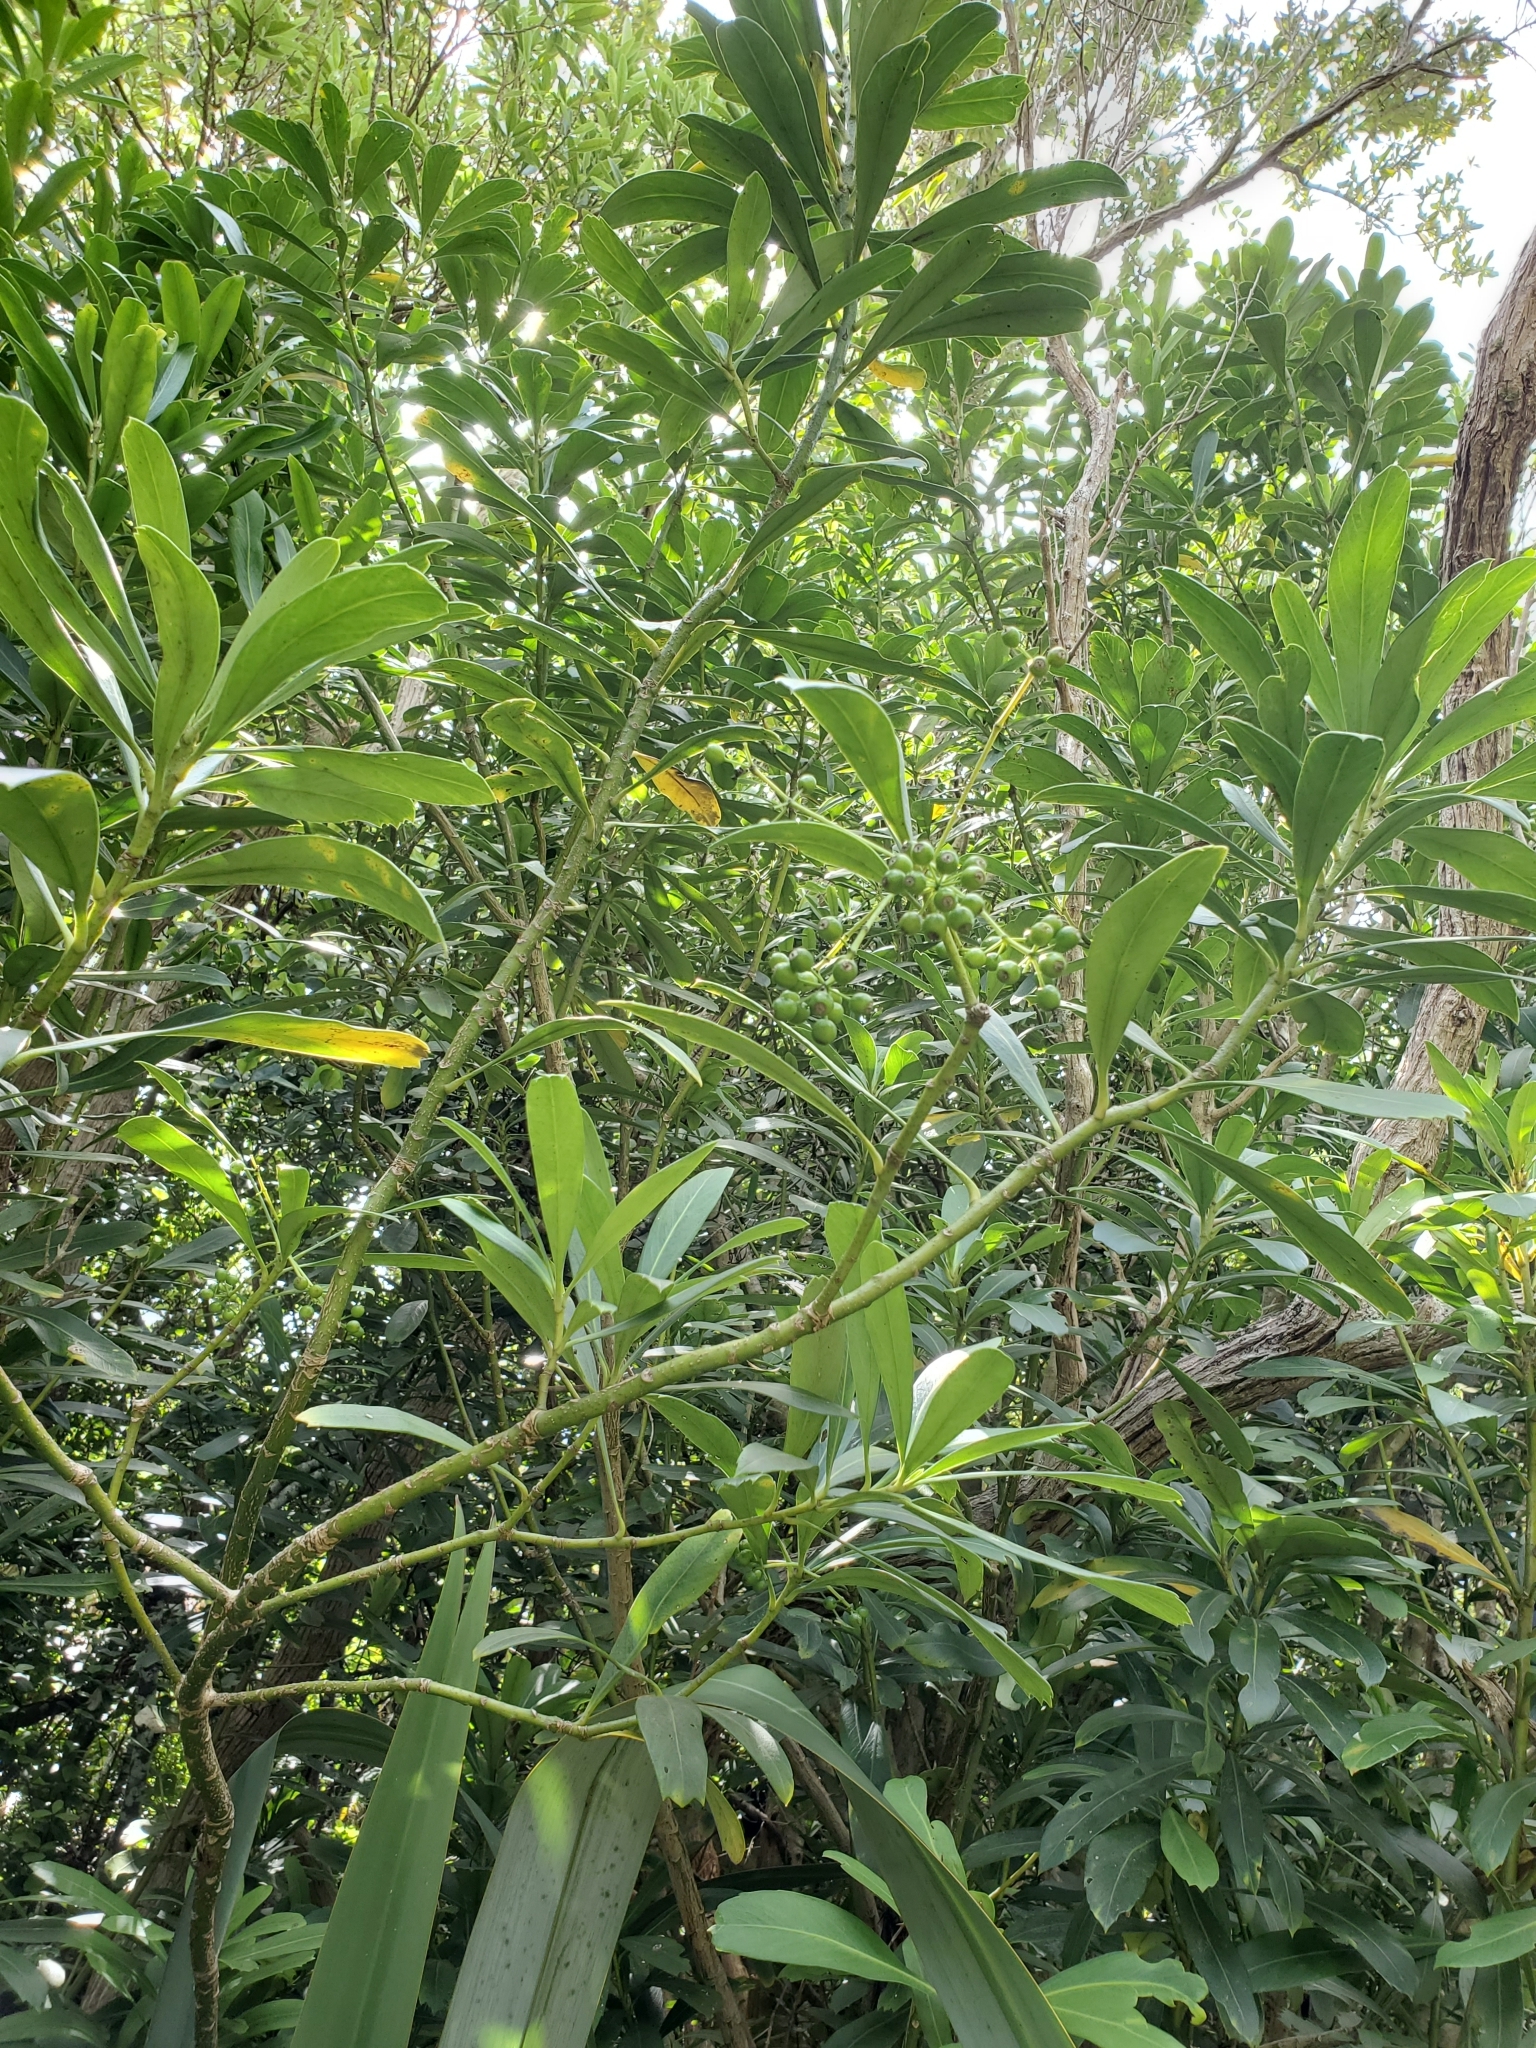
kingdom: Plantae
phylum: Tracheophyta
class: Magnoliopsida
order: Apiales
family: Araliaceae
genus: Pseudopanax
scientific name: Pseudopanax chathamicus
